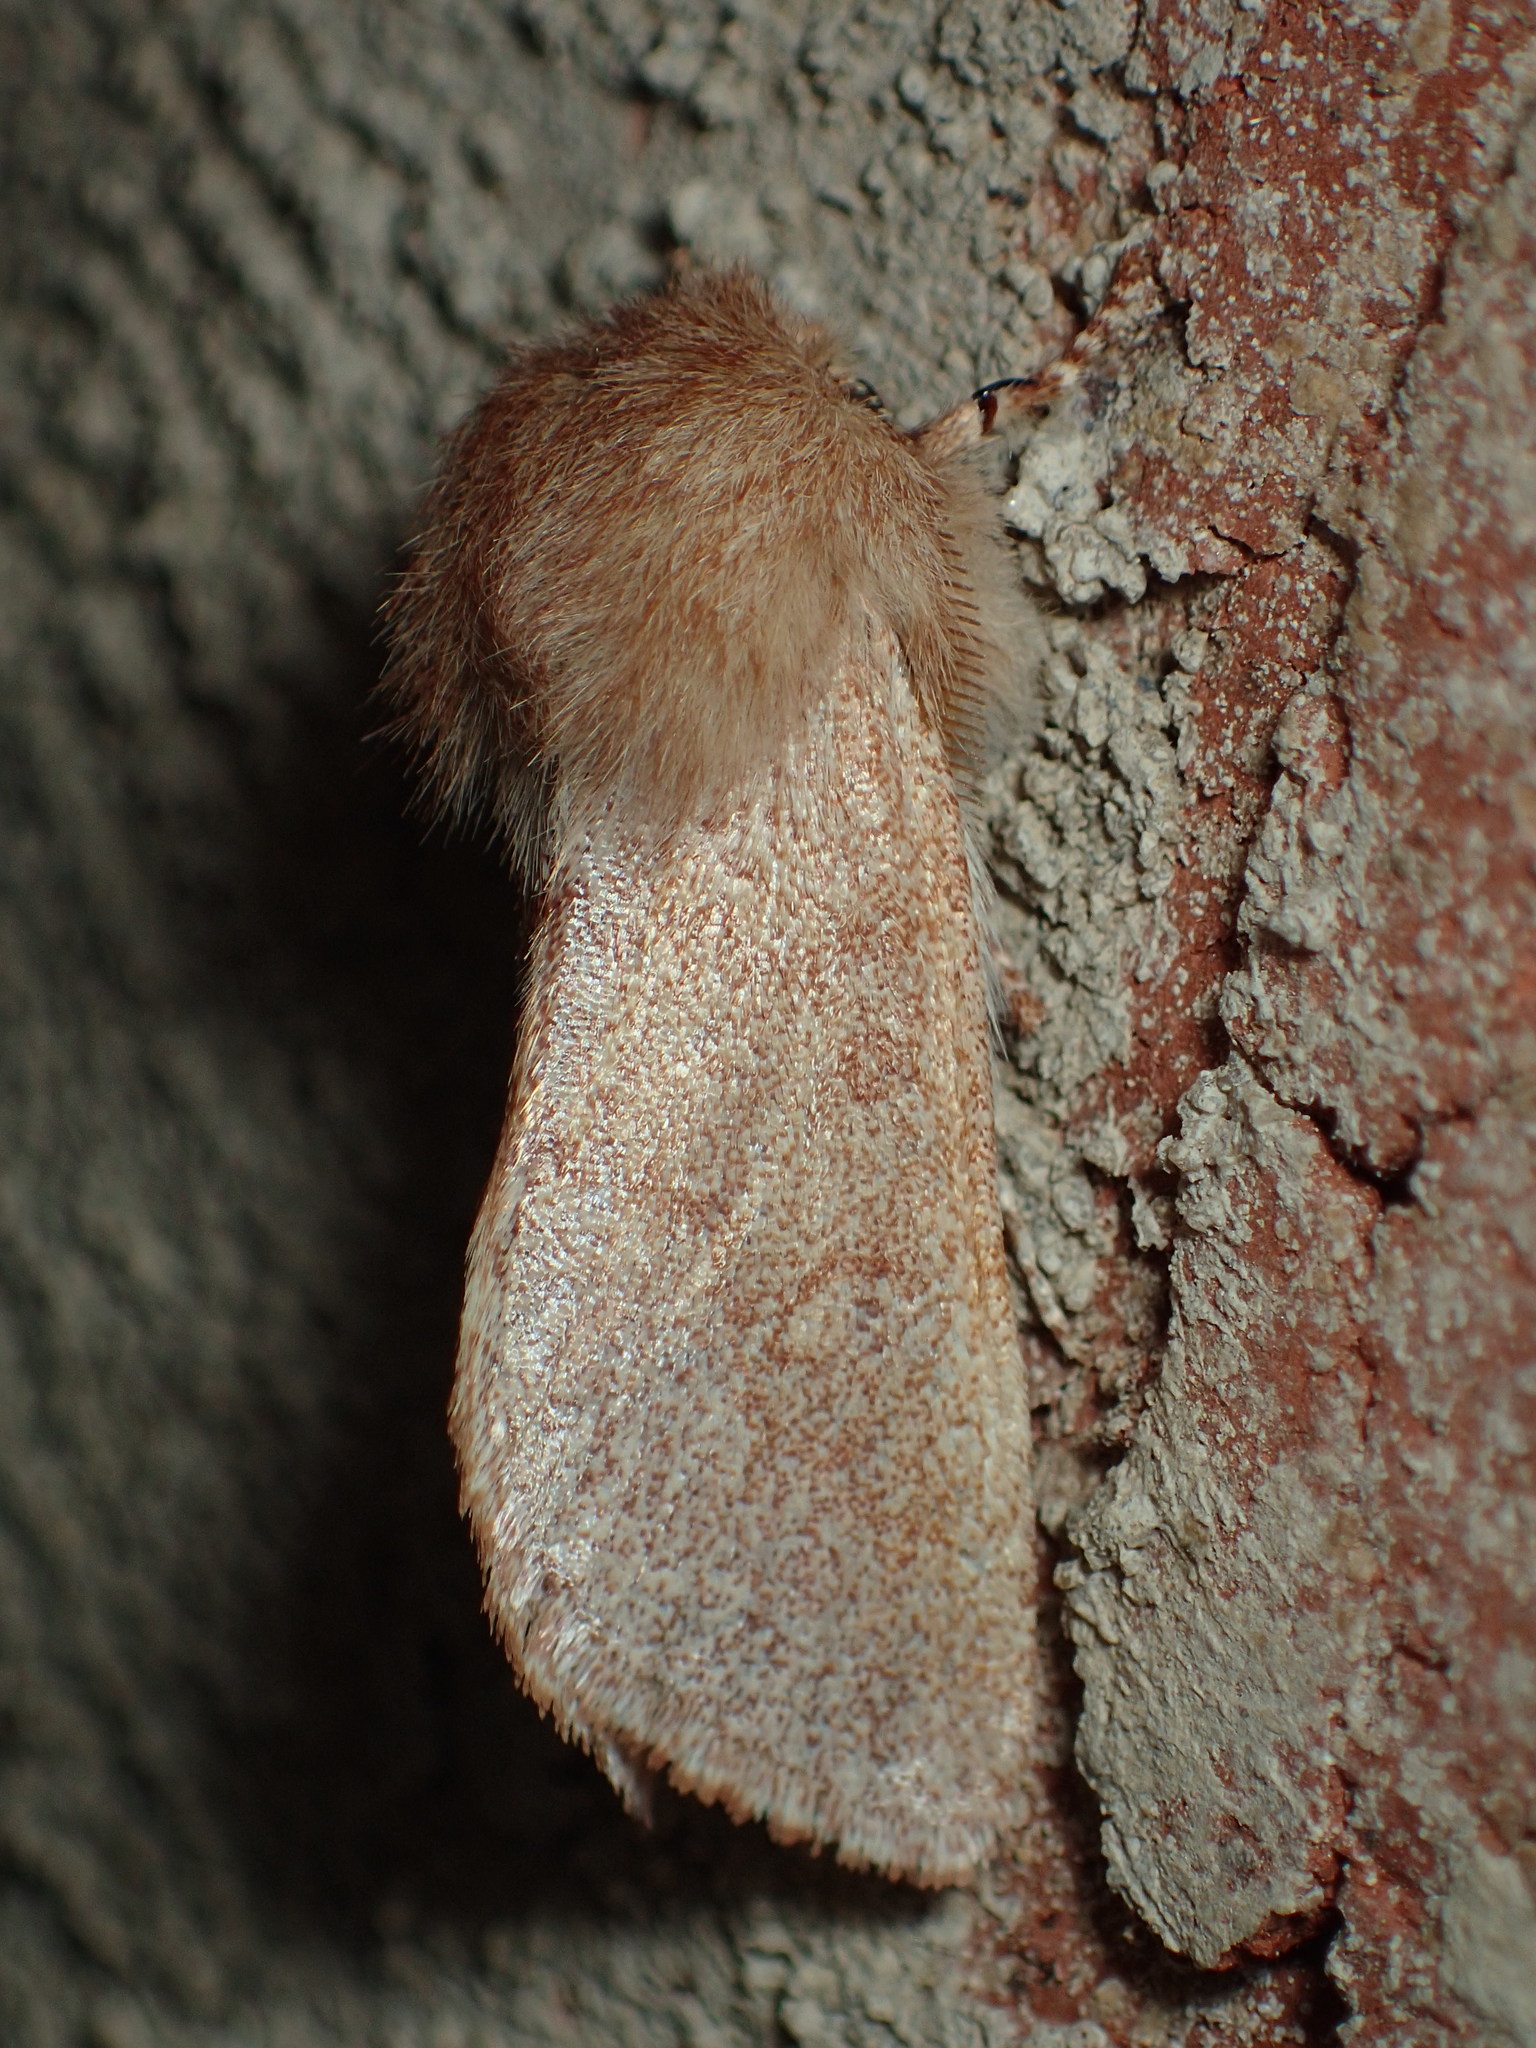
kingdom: Animalia
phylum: Arthropoda
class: Insecta
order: Lepidoptera
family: Noctuidae
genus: Psaphida
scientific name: Psaphida styracis
